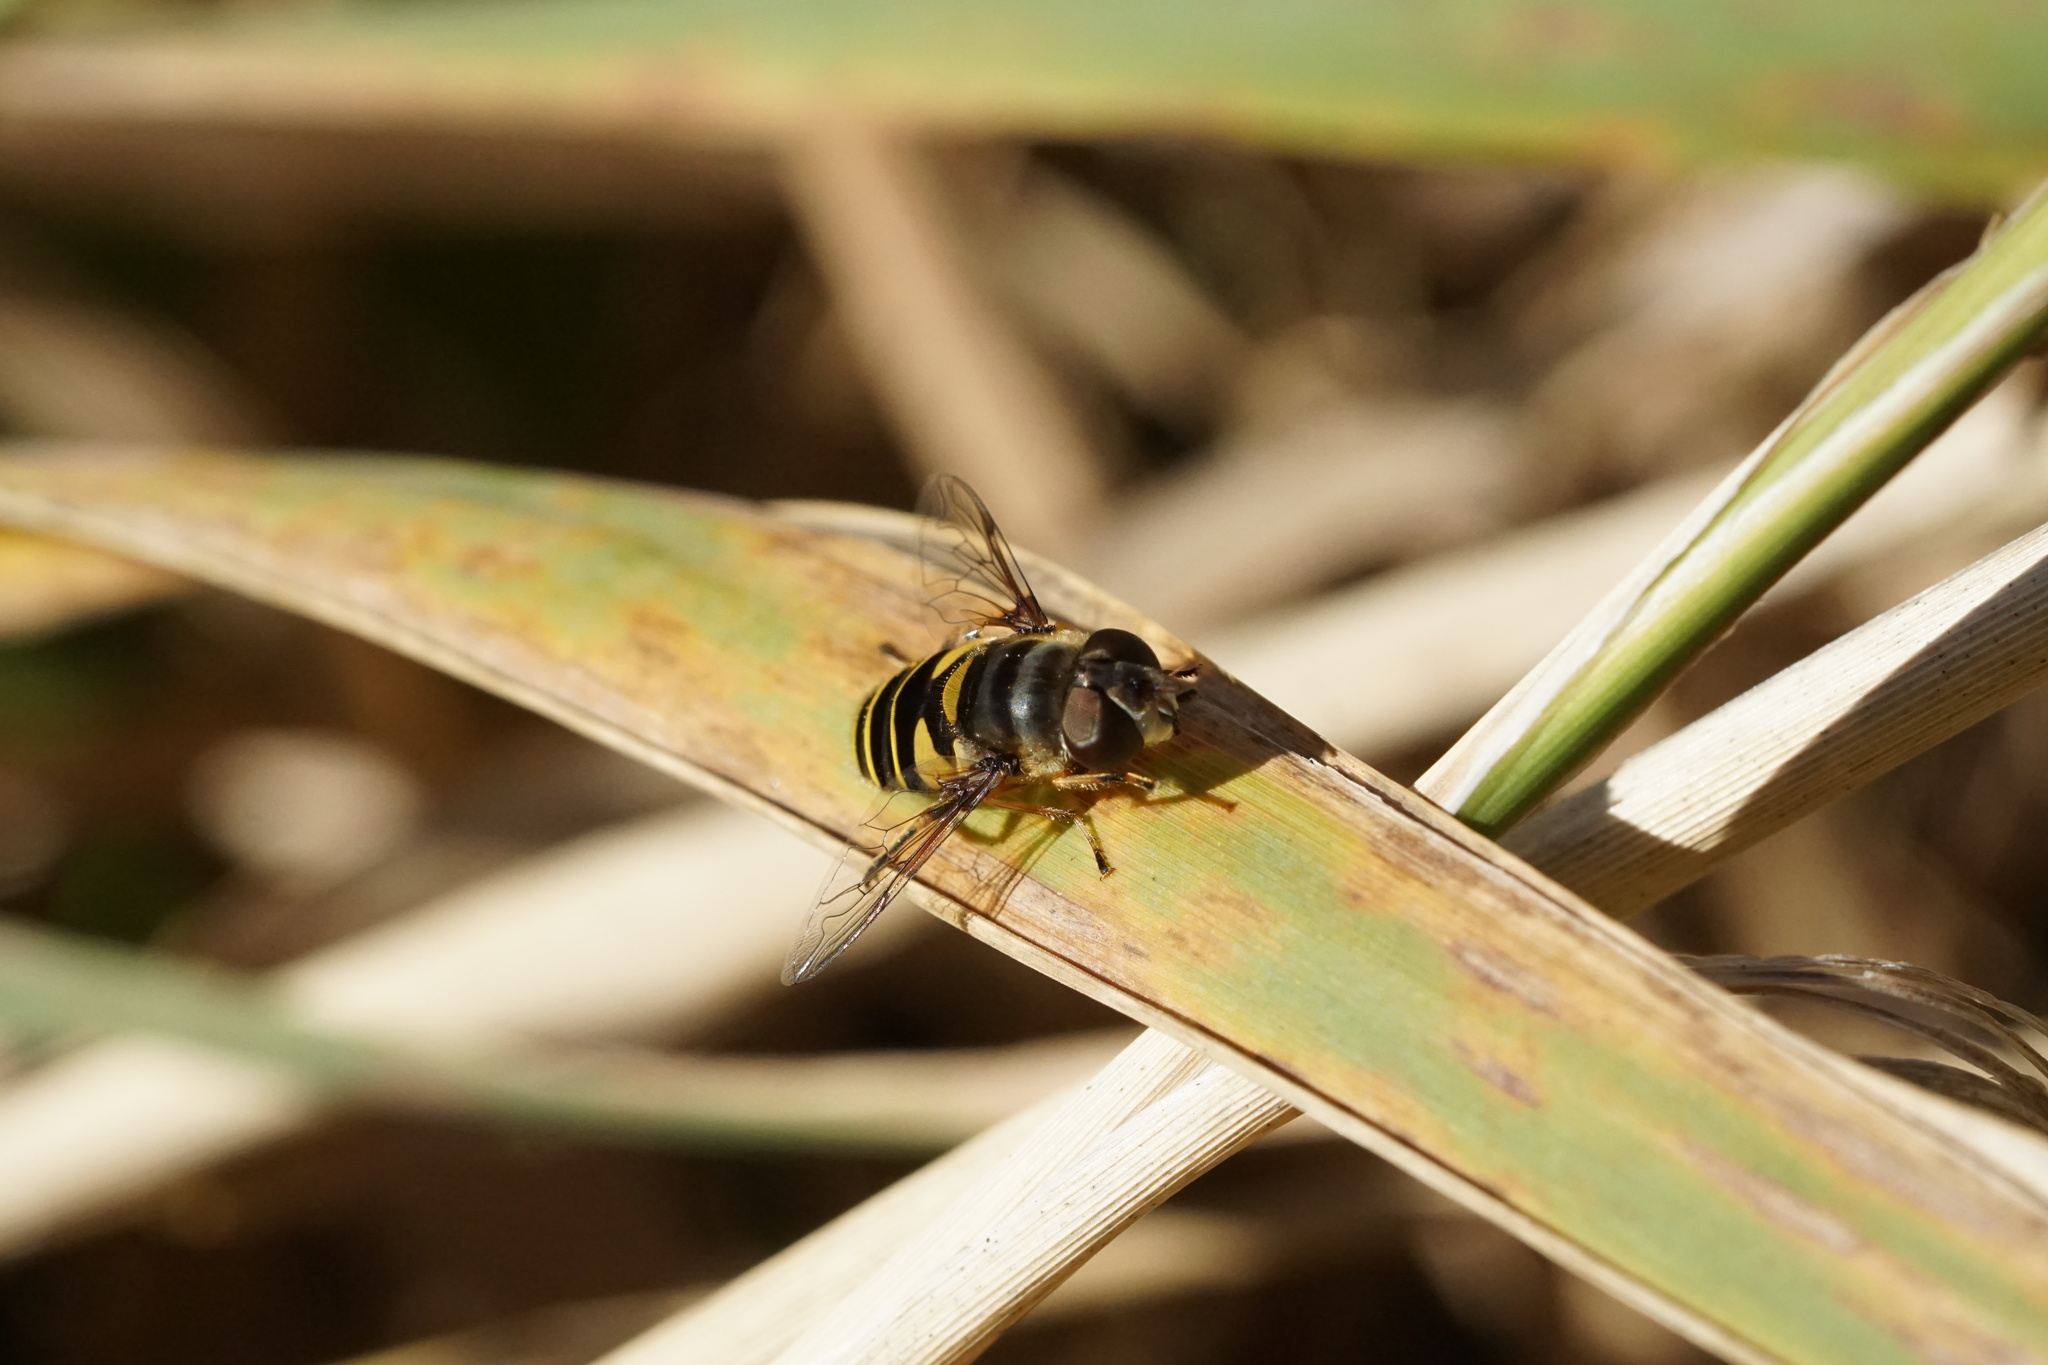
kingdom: Animalia
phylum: Arthropoda
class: Insecta
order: Diptera
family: Syrphidae
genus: Eristalis
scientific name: Eristalis transversa
